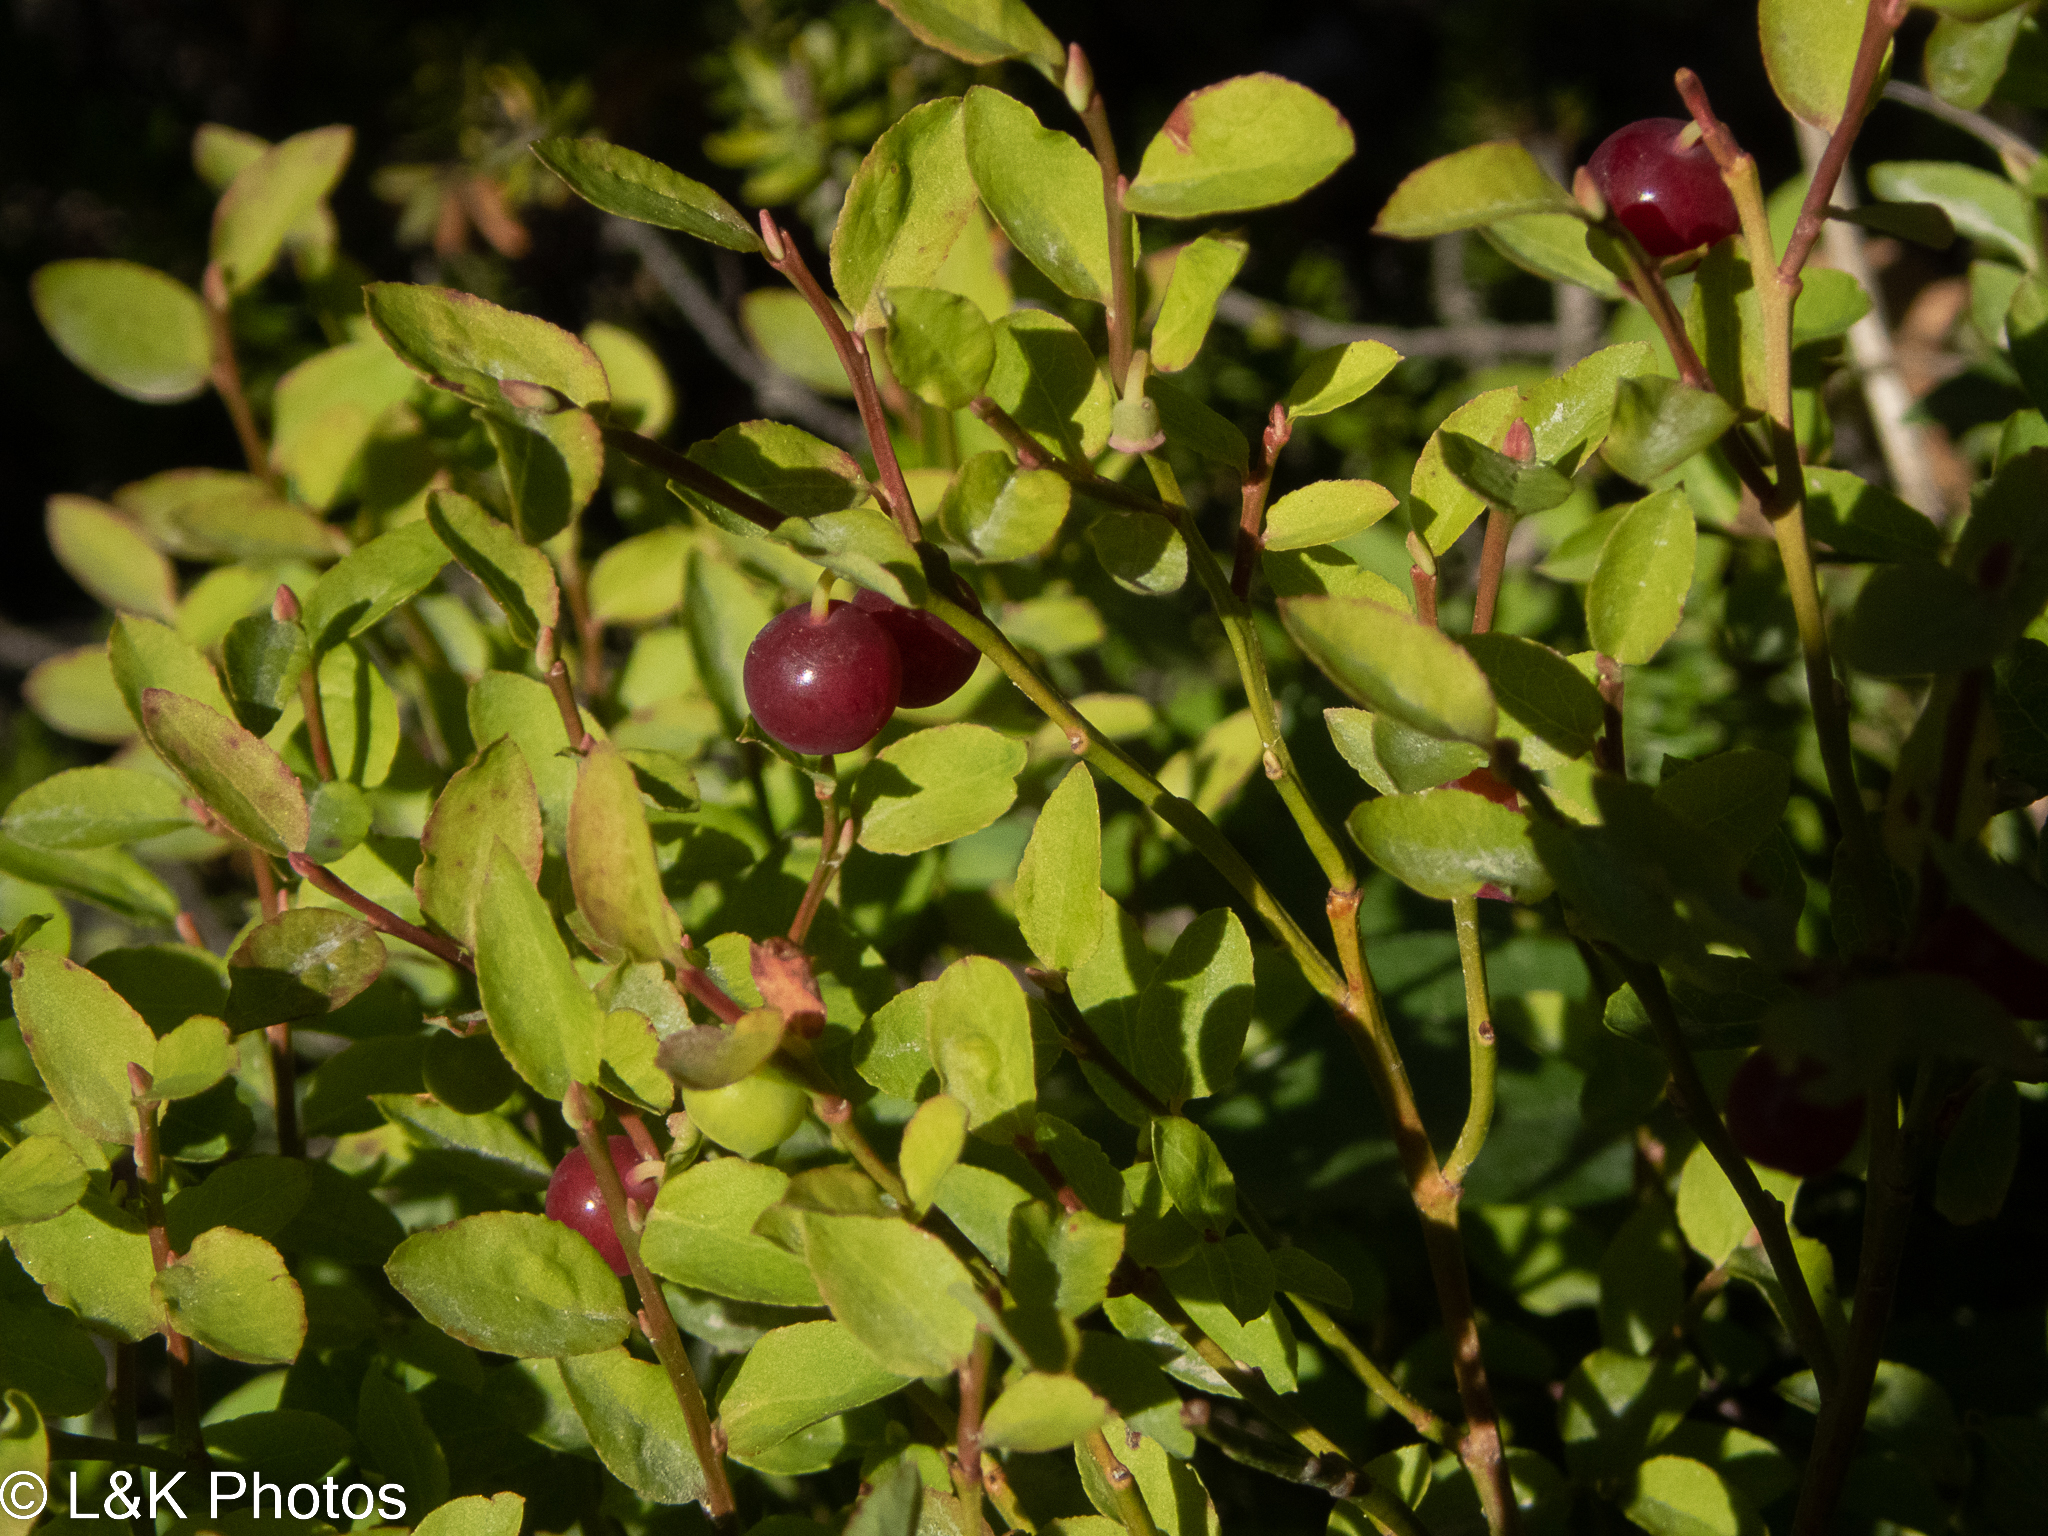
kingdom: Plantae
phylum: Tracheophyta
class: Magnoliopsida
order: Ericales
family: Ericaceae
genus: Vaccinium
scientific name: Vaccinium scoparium
